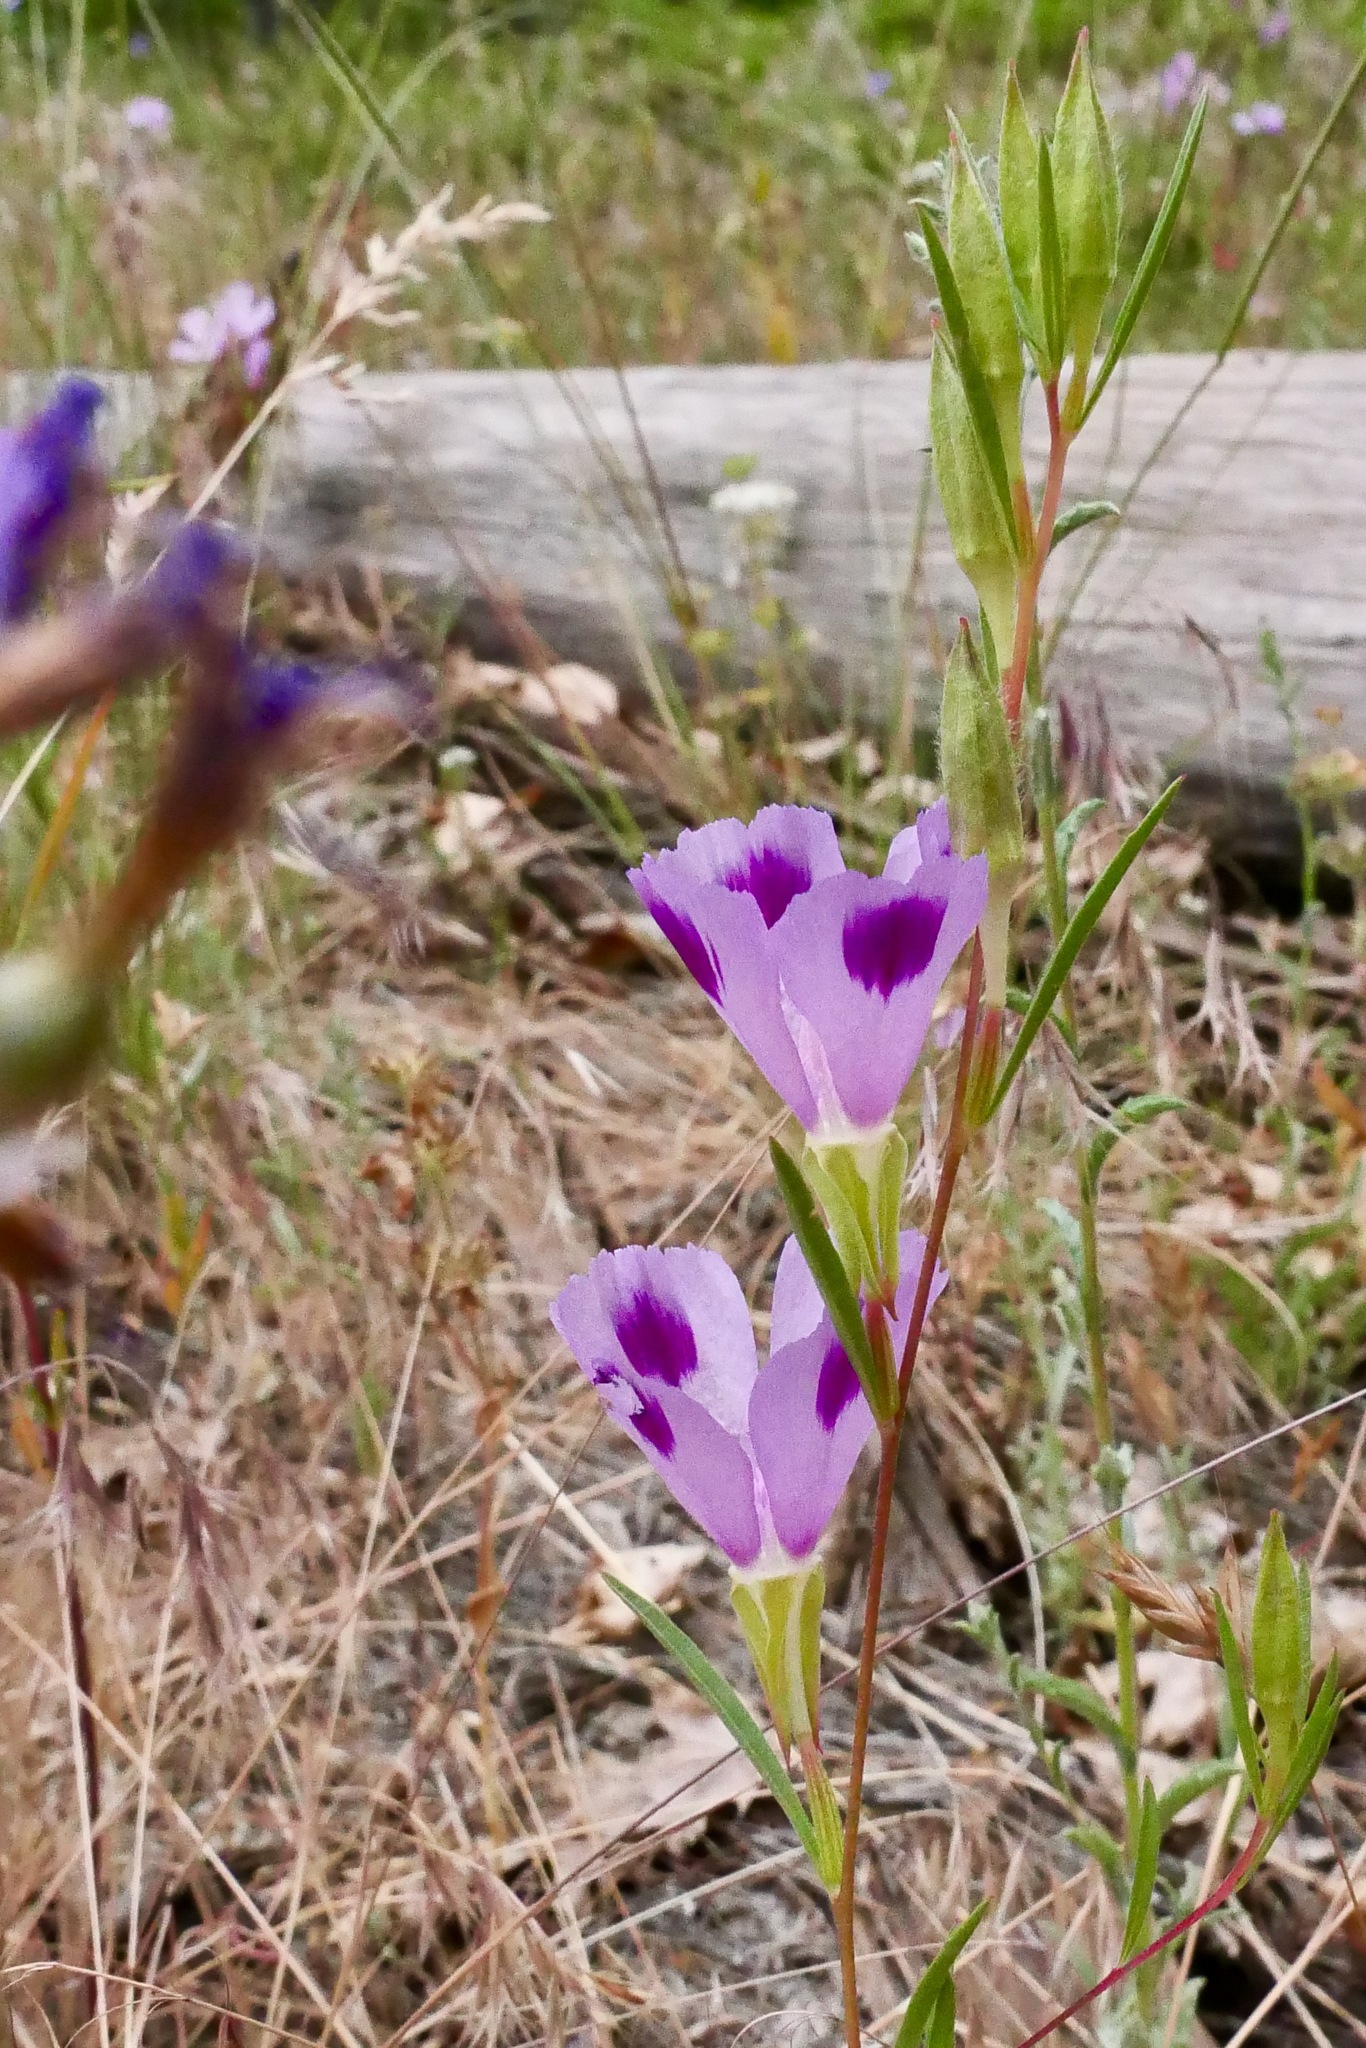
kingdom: Plantae
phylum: Tracheophyta
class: Magnoliopsida
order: Myrtales
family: Onagraceae
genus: Clarkia
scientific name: Clarkia williamsonii
